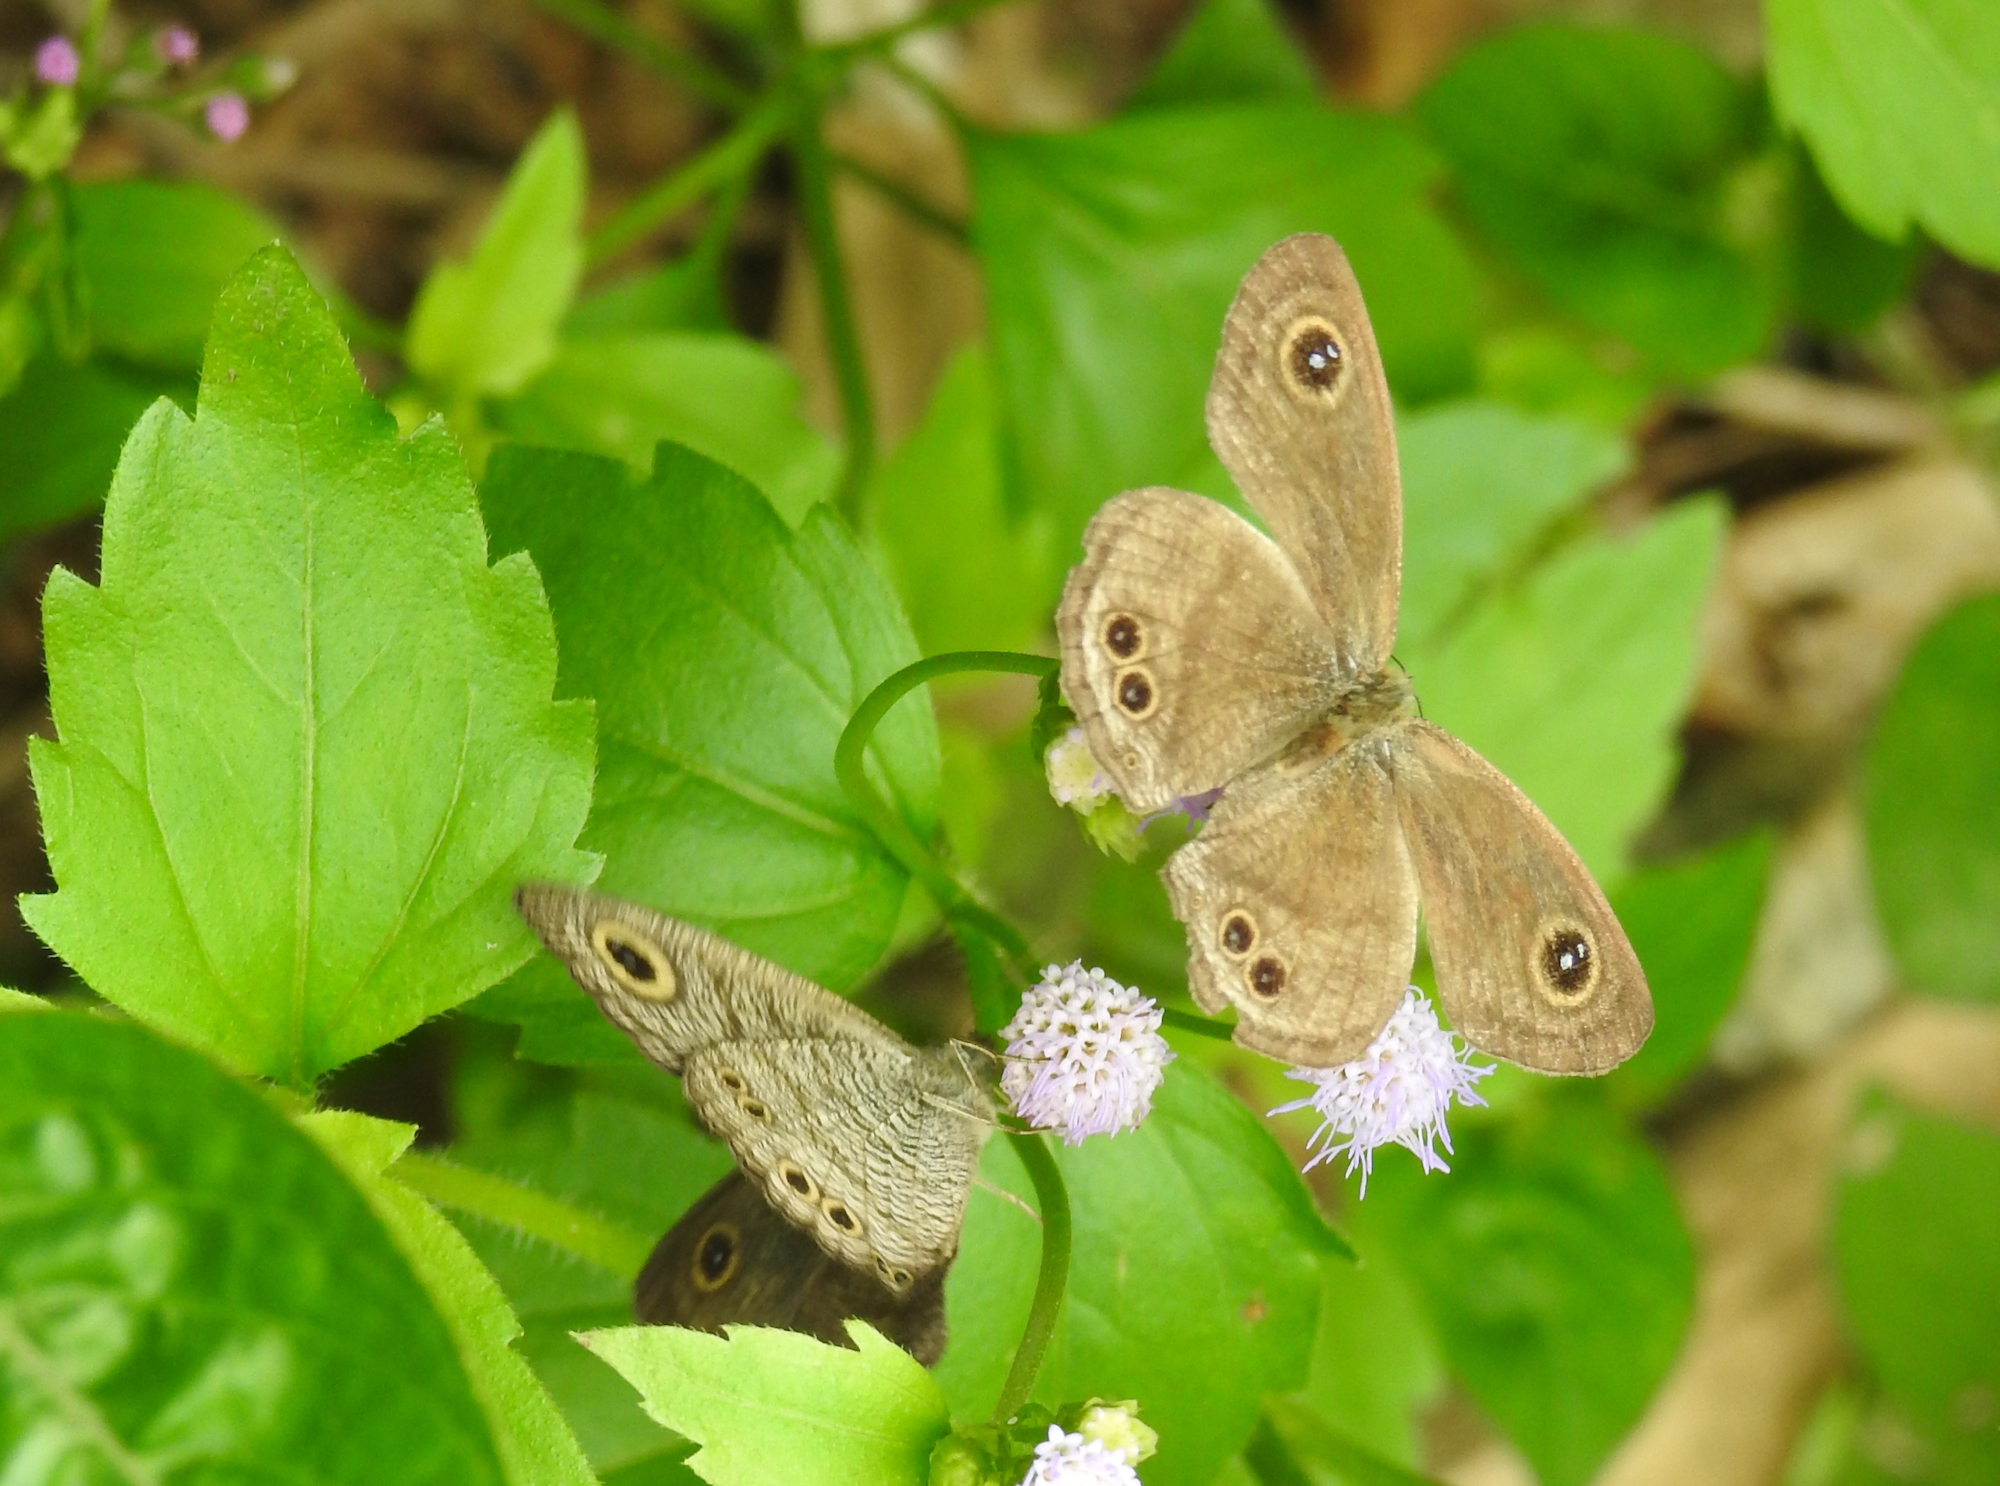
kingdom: Animalia
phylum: Arthropoda
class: Insecta
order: Lepidoptera
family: Nymphalidae
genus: Ypthima
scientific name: Ypthima baldus
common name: Common five-ring
